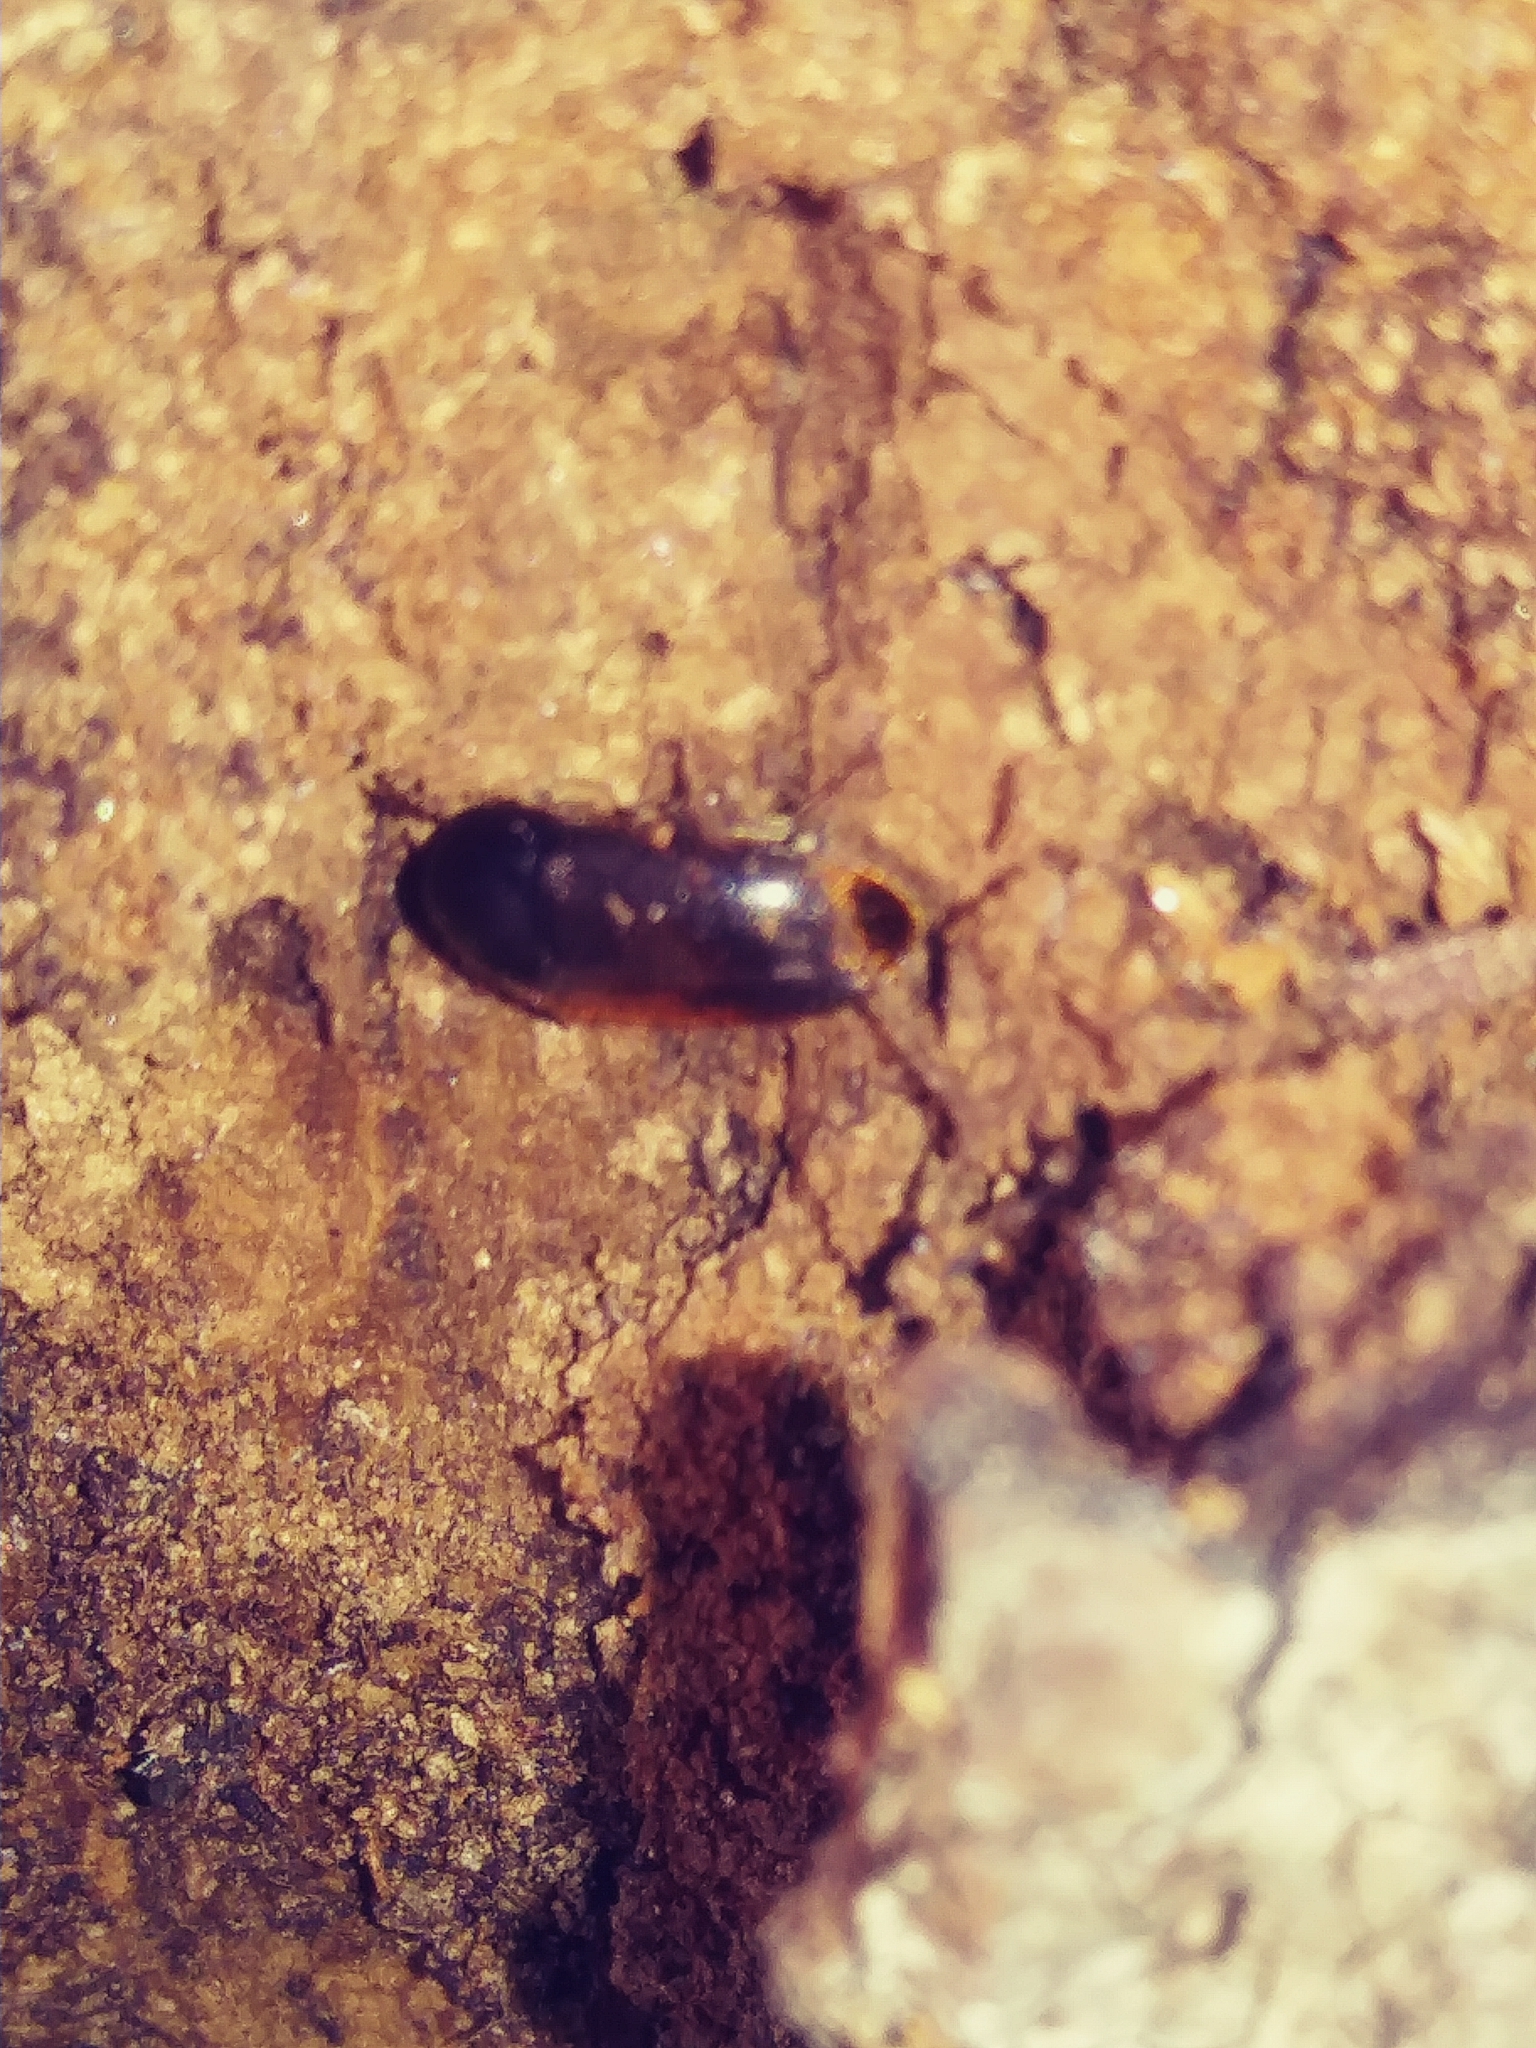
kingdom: Animalia
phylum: Arthropoda
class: Insecta
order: Coleoptera
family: Tetratomidae
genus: Eustrophus
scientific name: Eustrophus tomentosus
